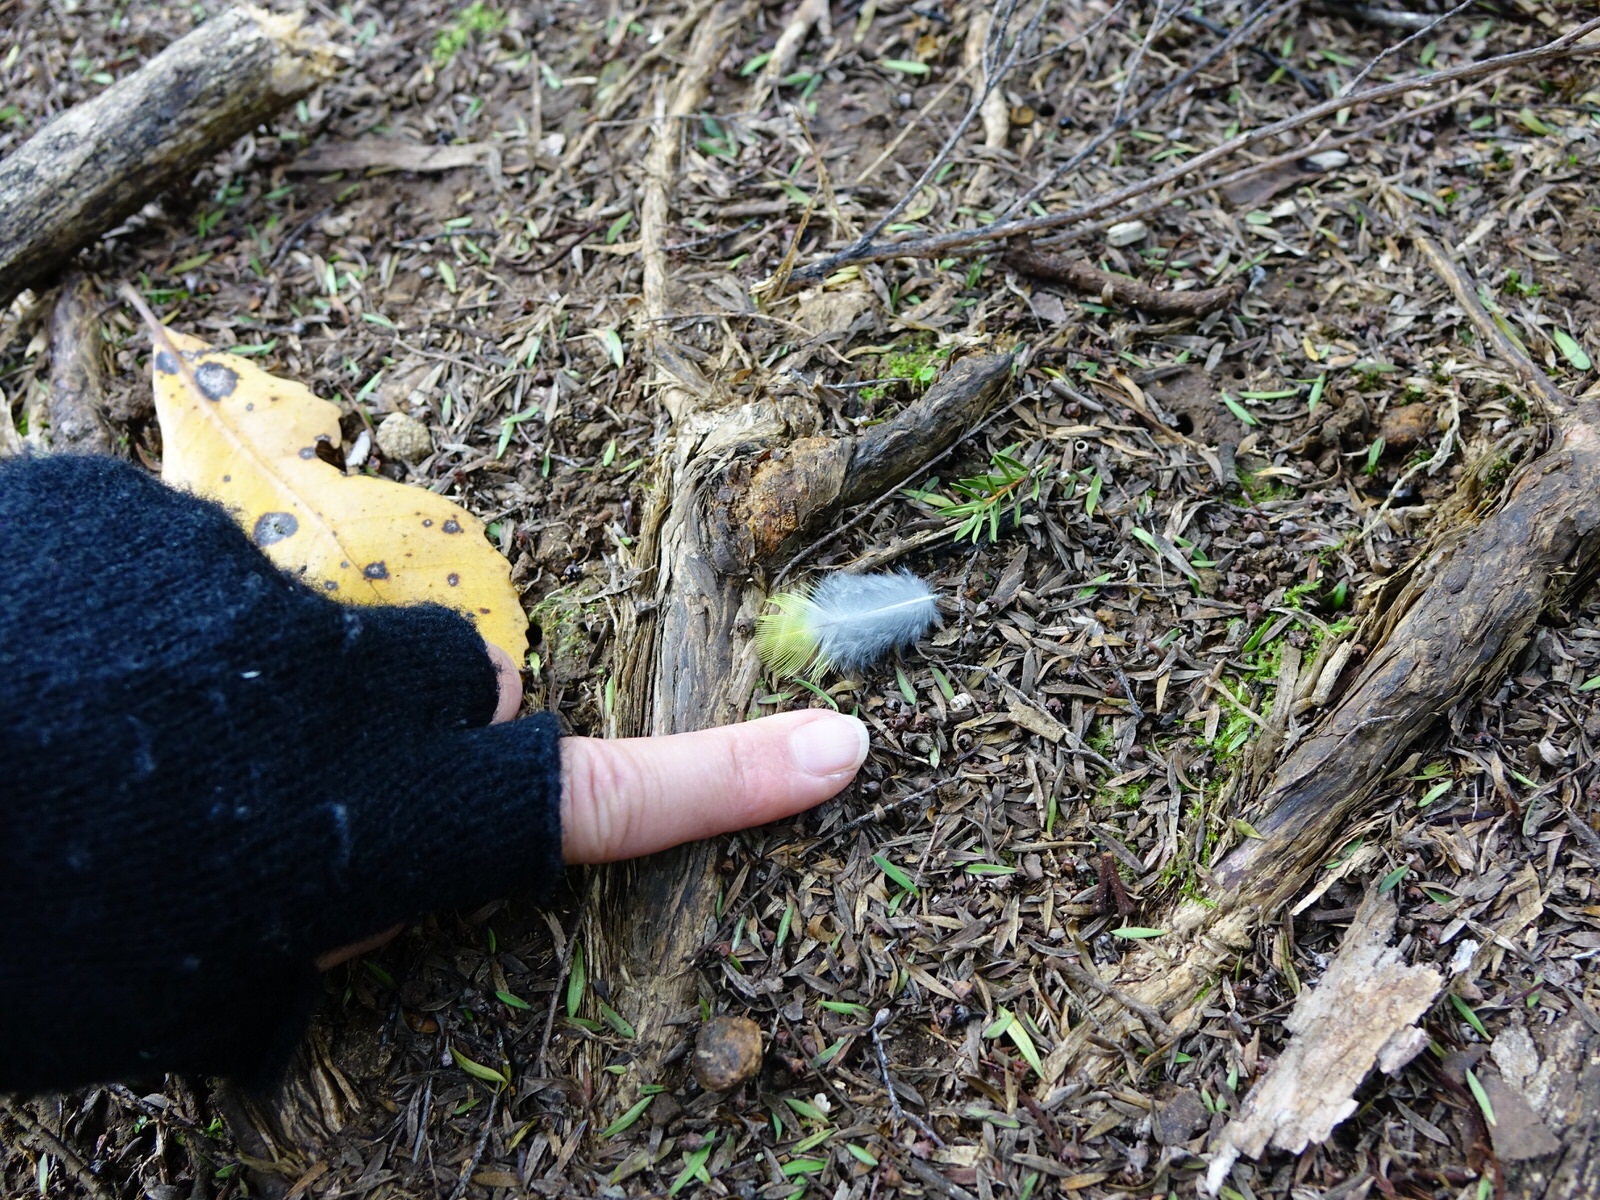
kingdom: Animalia
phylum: Chordata
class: Aves
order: Psittaciformes
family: Psittacidae
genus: Platycercus
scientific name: Platycercus eximius
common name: Eastern rosella
